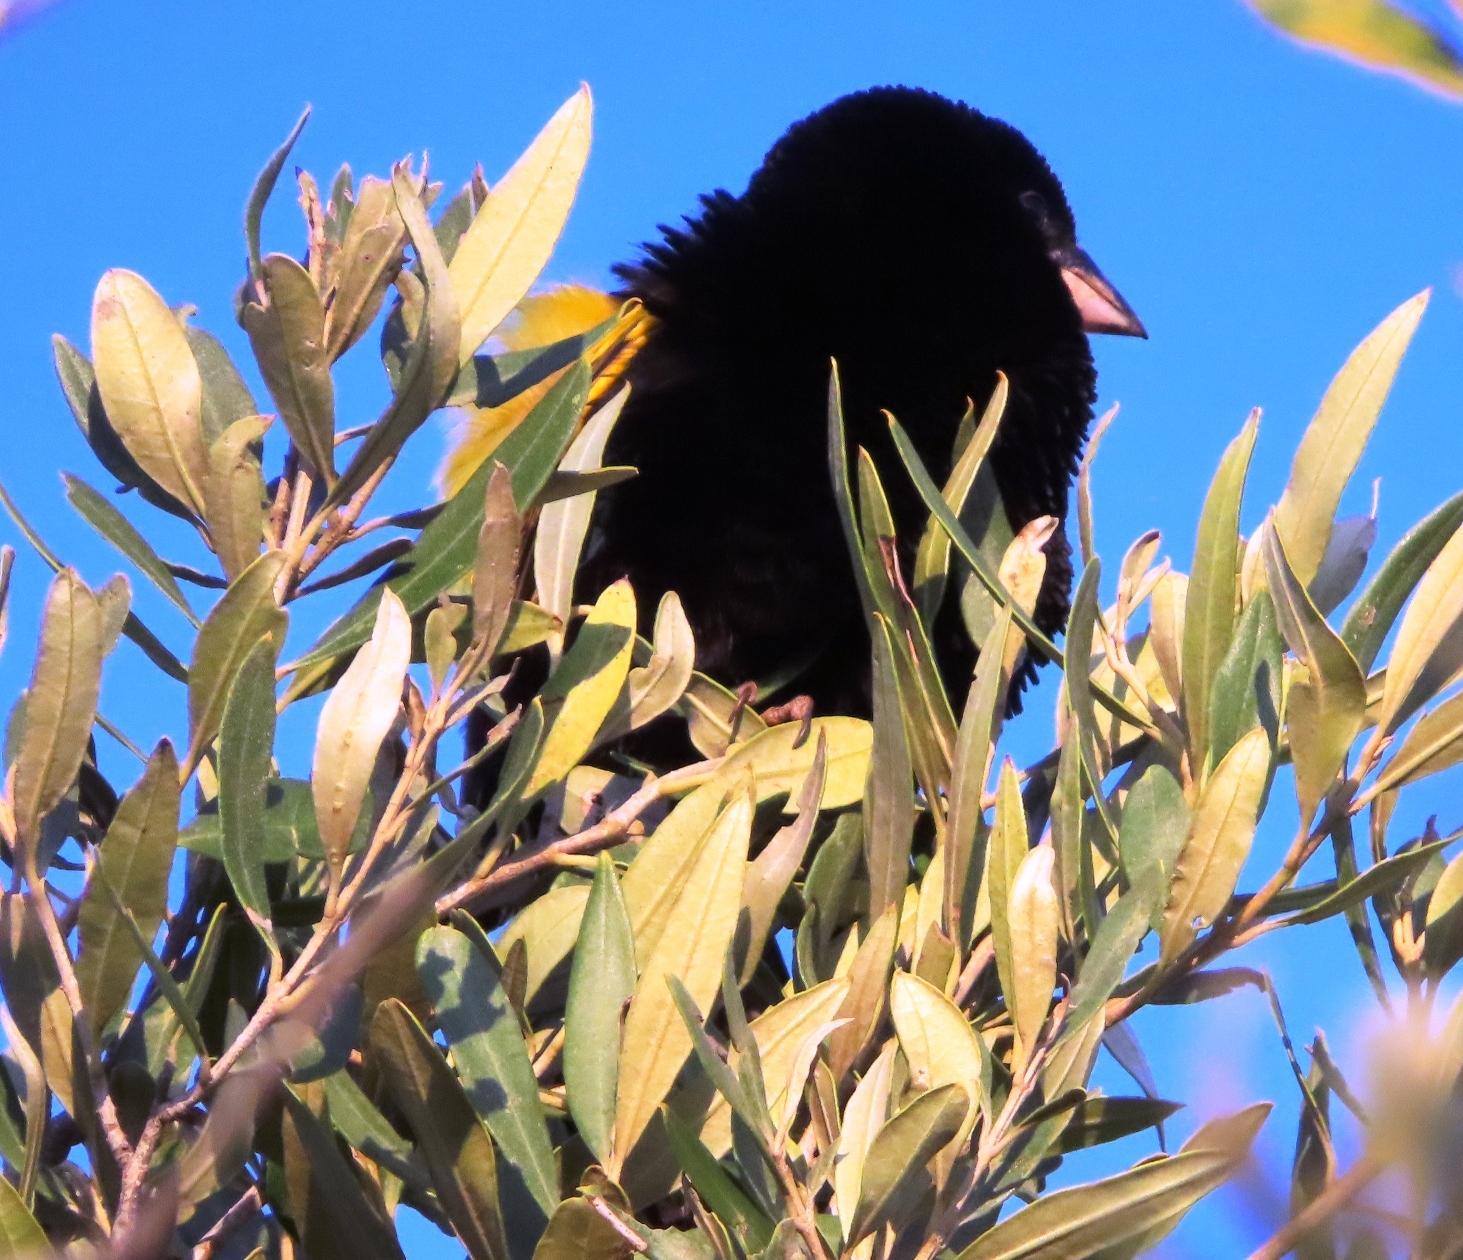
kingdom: Animalia
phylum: Chordata
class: Aves
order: Passeriformes
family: Ploceidae
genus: Euplectes
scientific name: Euplectes capensis
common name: Yellow bishop
